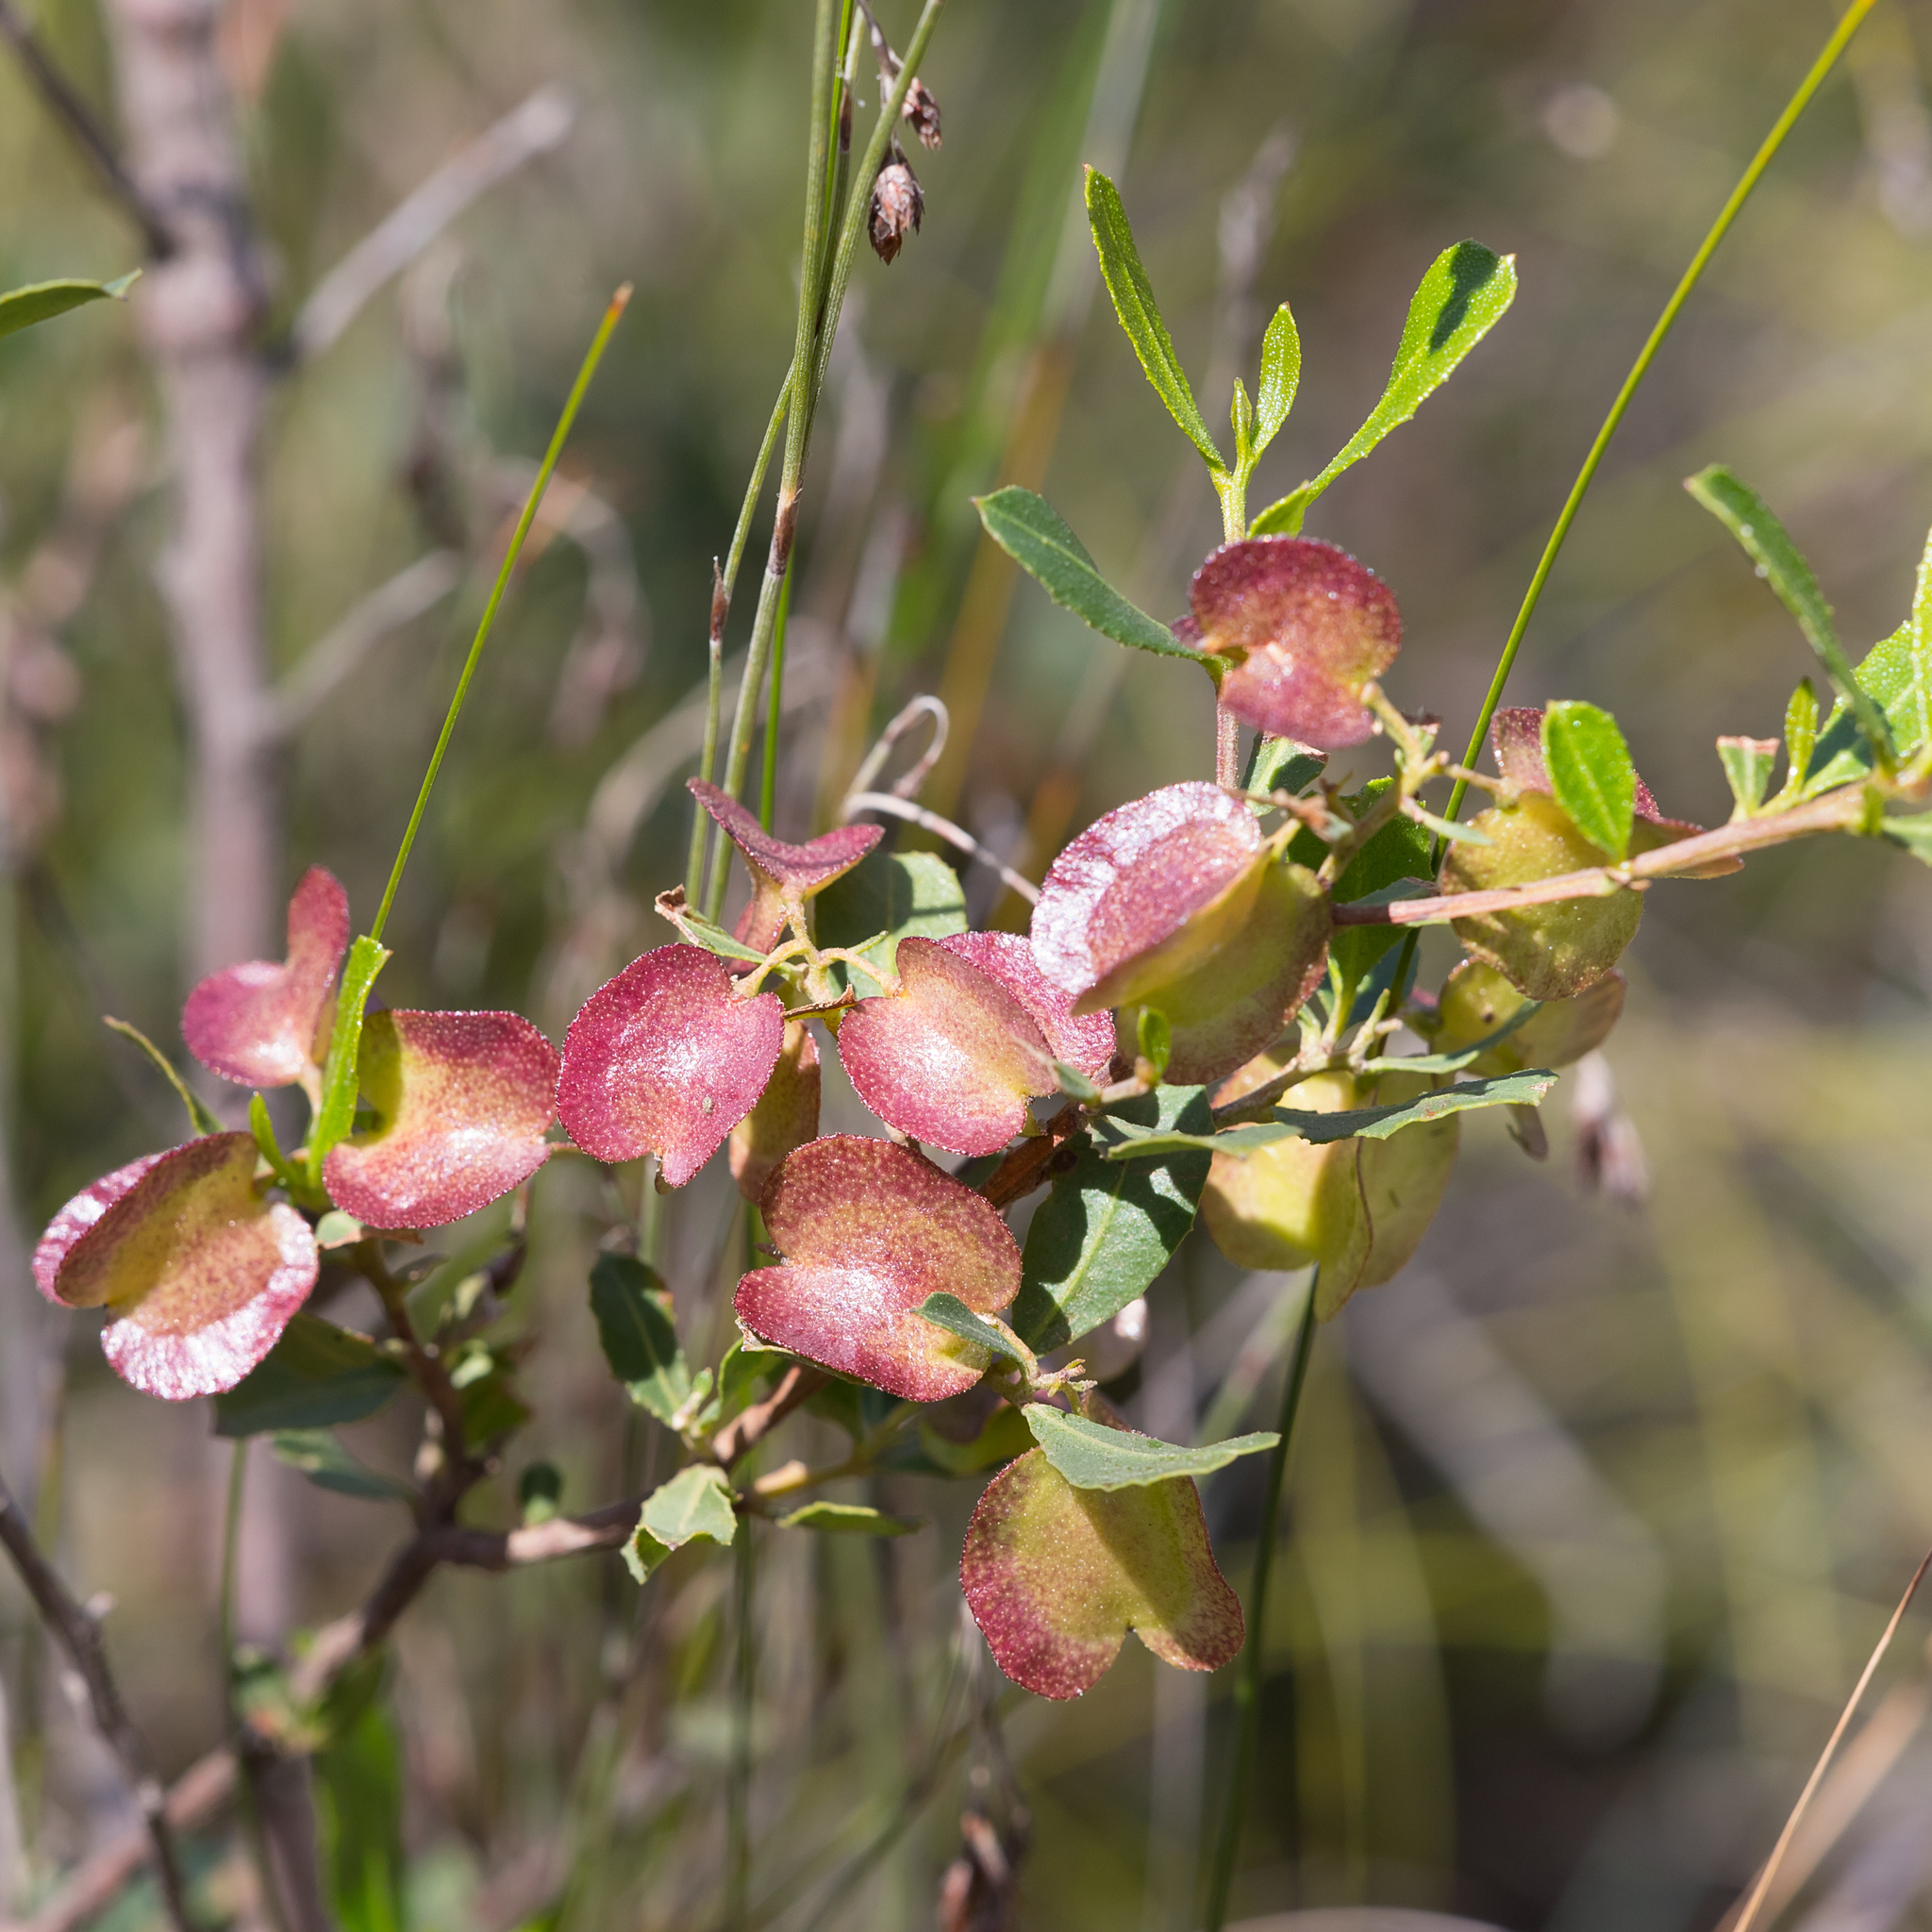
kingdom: Plantae
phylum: Tracheophyta
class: Magnoliopsida
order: Sapindales
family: Sapindaceae
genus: Dodonaea
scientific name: Dodonaea viscosa
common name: Hopbush
